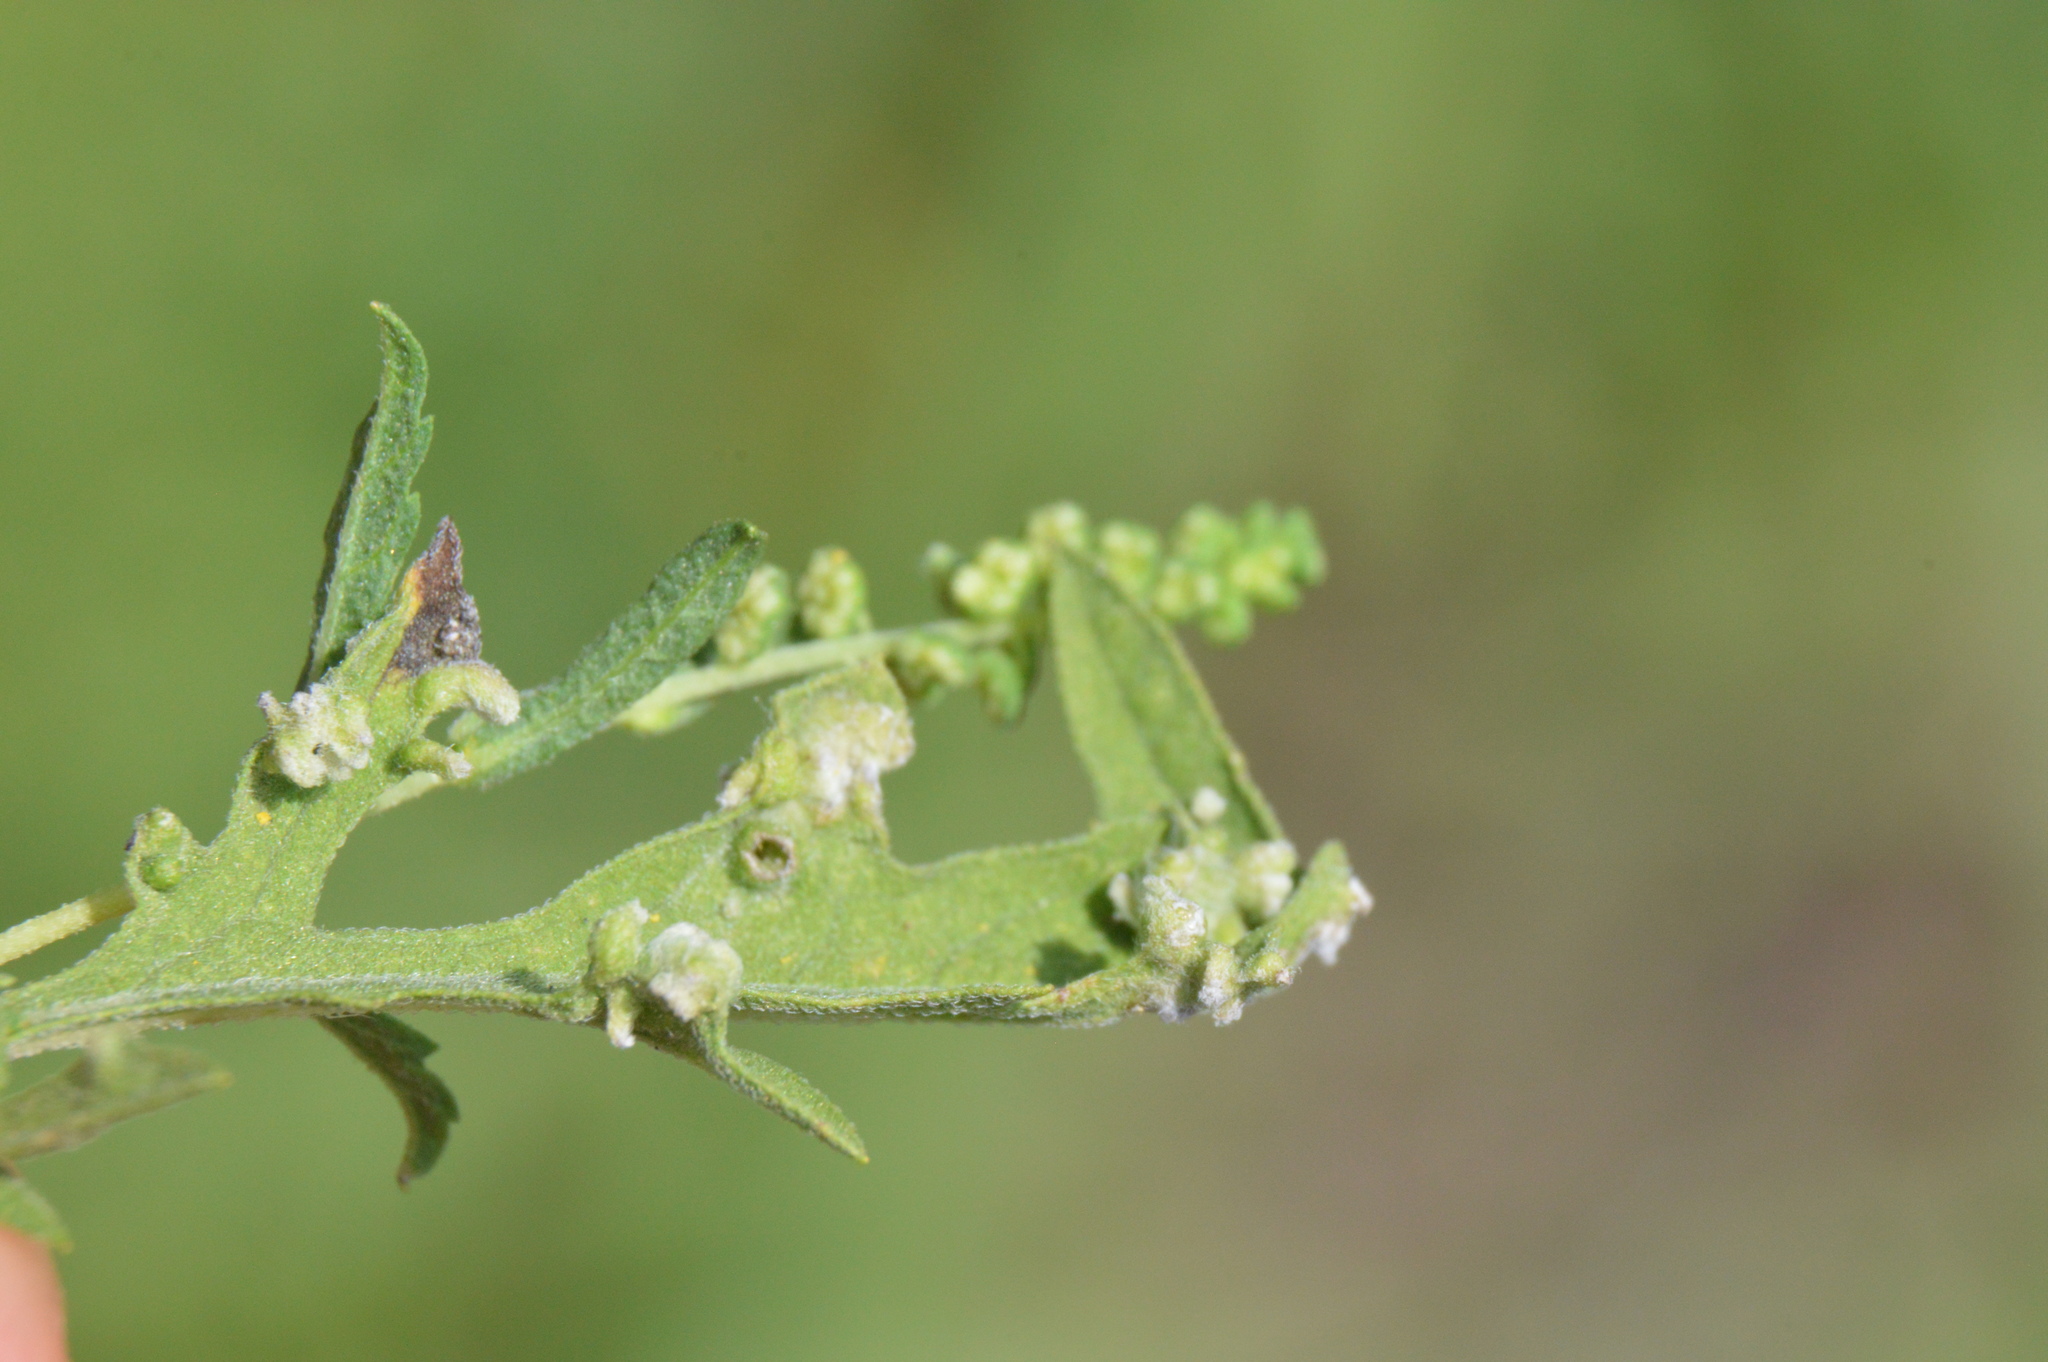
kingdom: Animalia
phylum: Arthropoda
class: Arachnida
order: Trombidiformes
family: Eriophyidae
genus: Aceria
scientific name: Aceria
